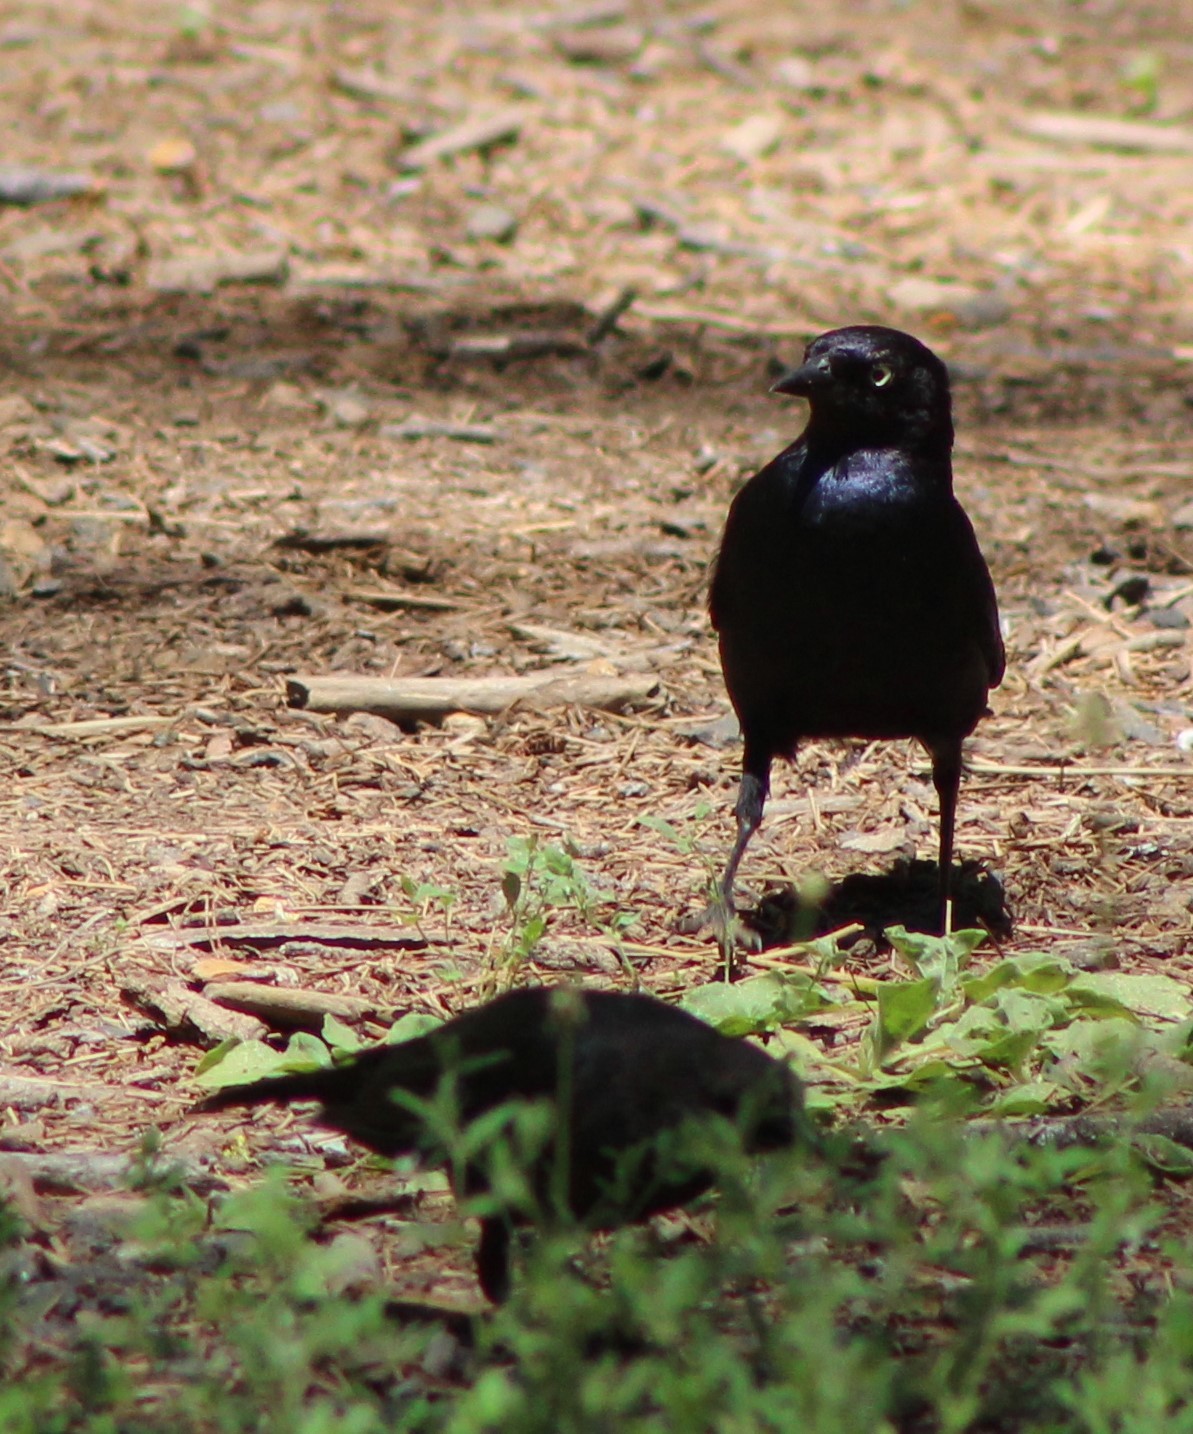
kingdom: Animalia
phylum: Chordata
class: Aves
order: Passeriformes
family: Icteridae
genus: Euphagus
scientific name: Euphagus cyanocephalus
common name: Brewer's blackbird
